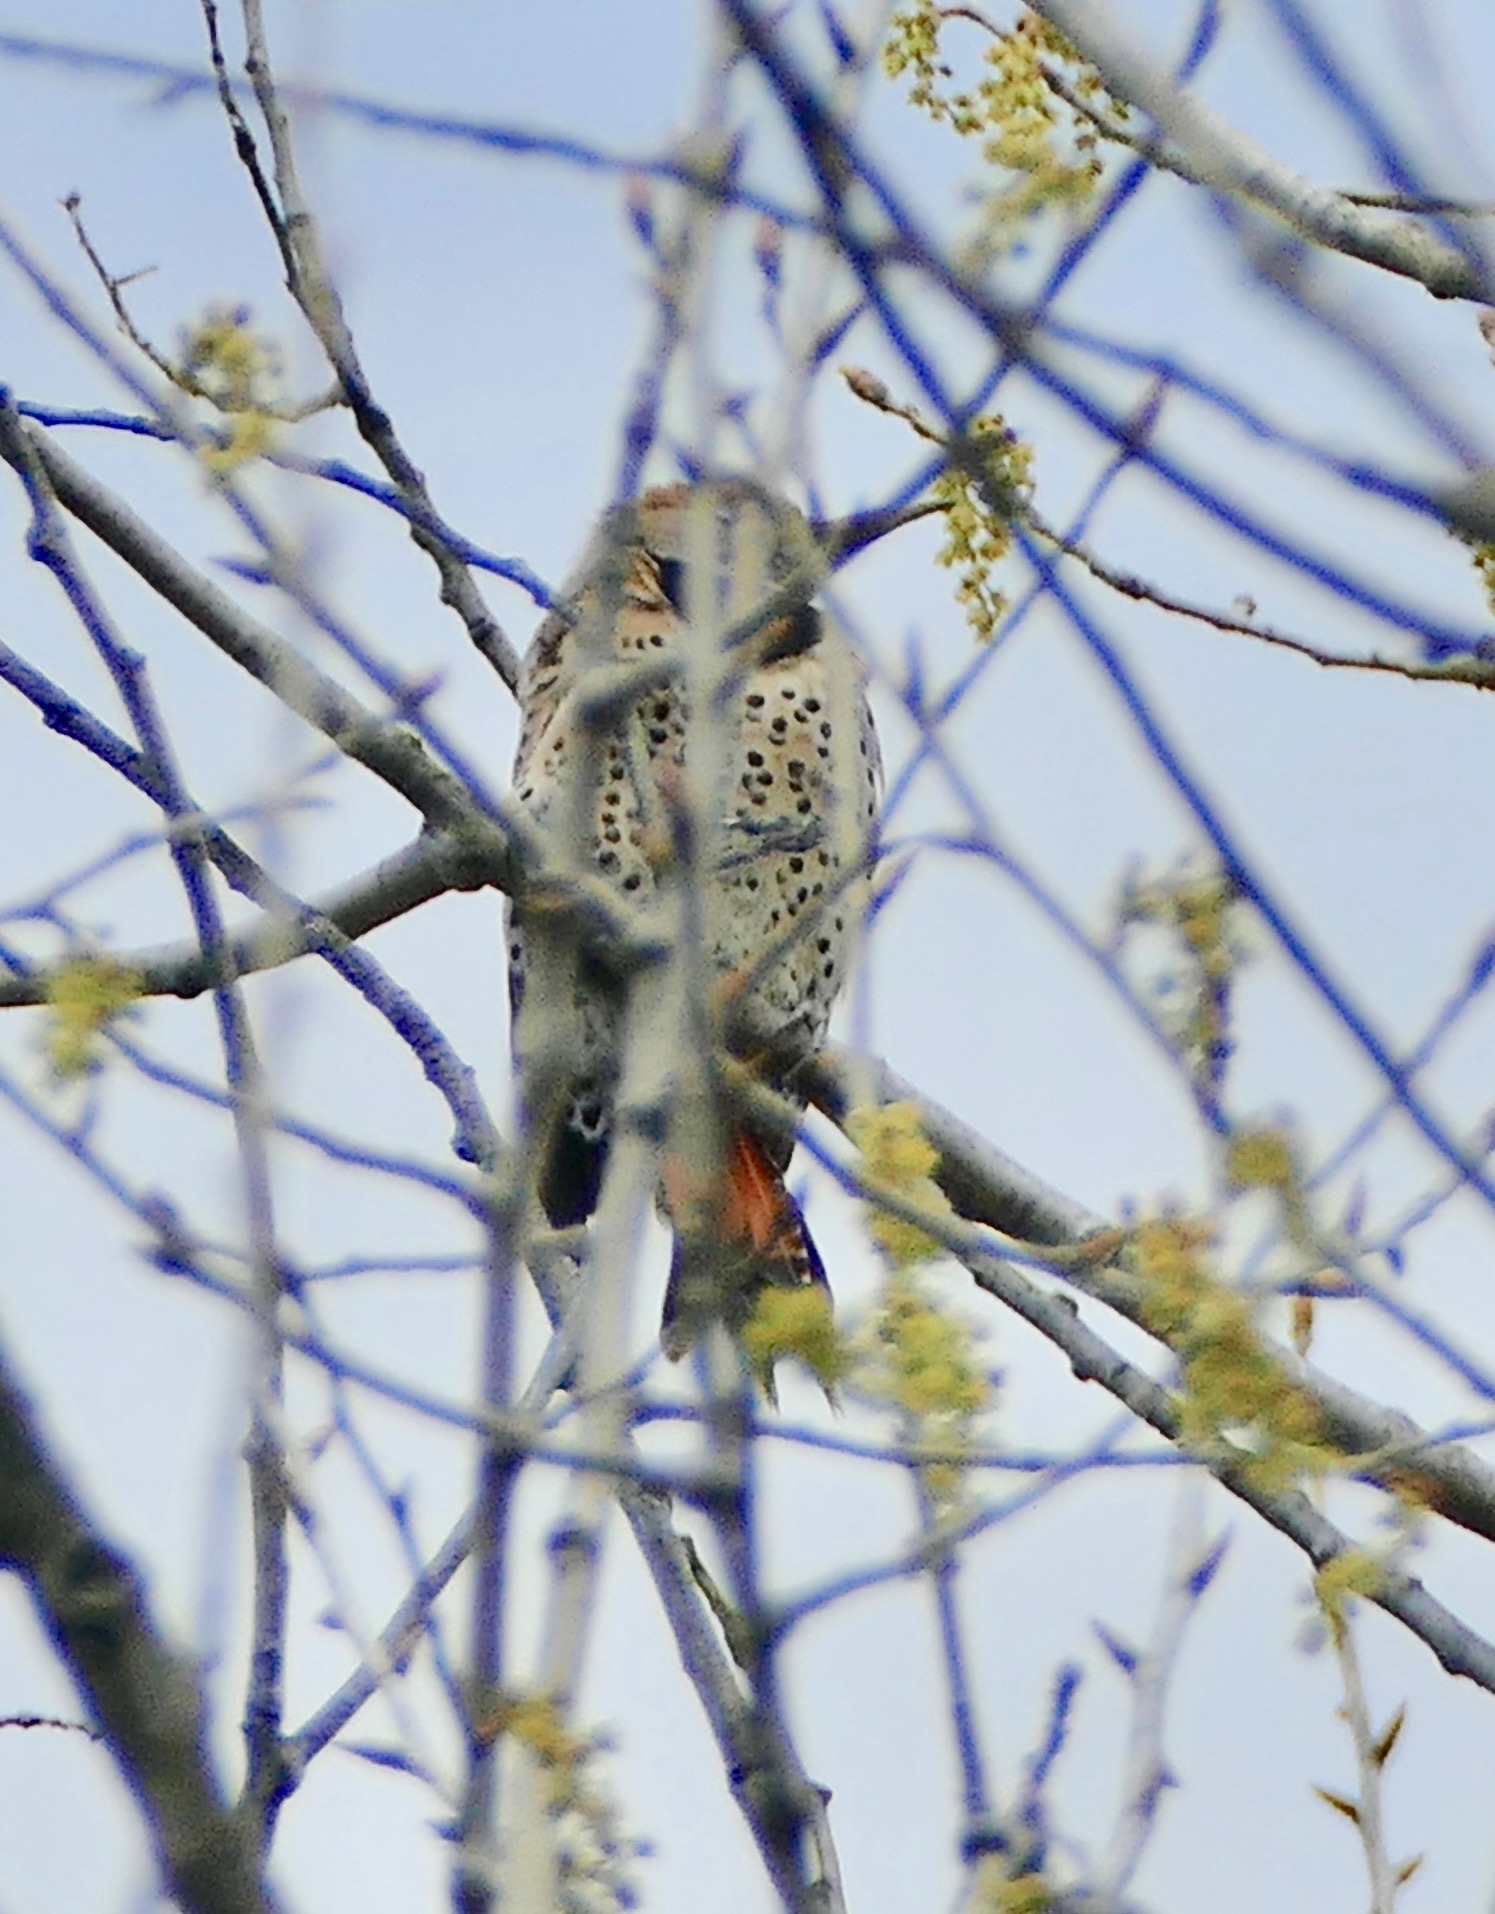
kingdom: Animalia
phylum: Chordata
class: Aves
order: Piciformes
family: Picidae
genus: Colaptes
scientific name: Colaptes auratus
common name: Northern flicker
